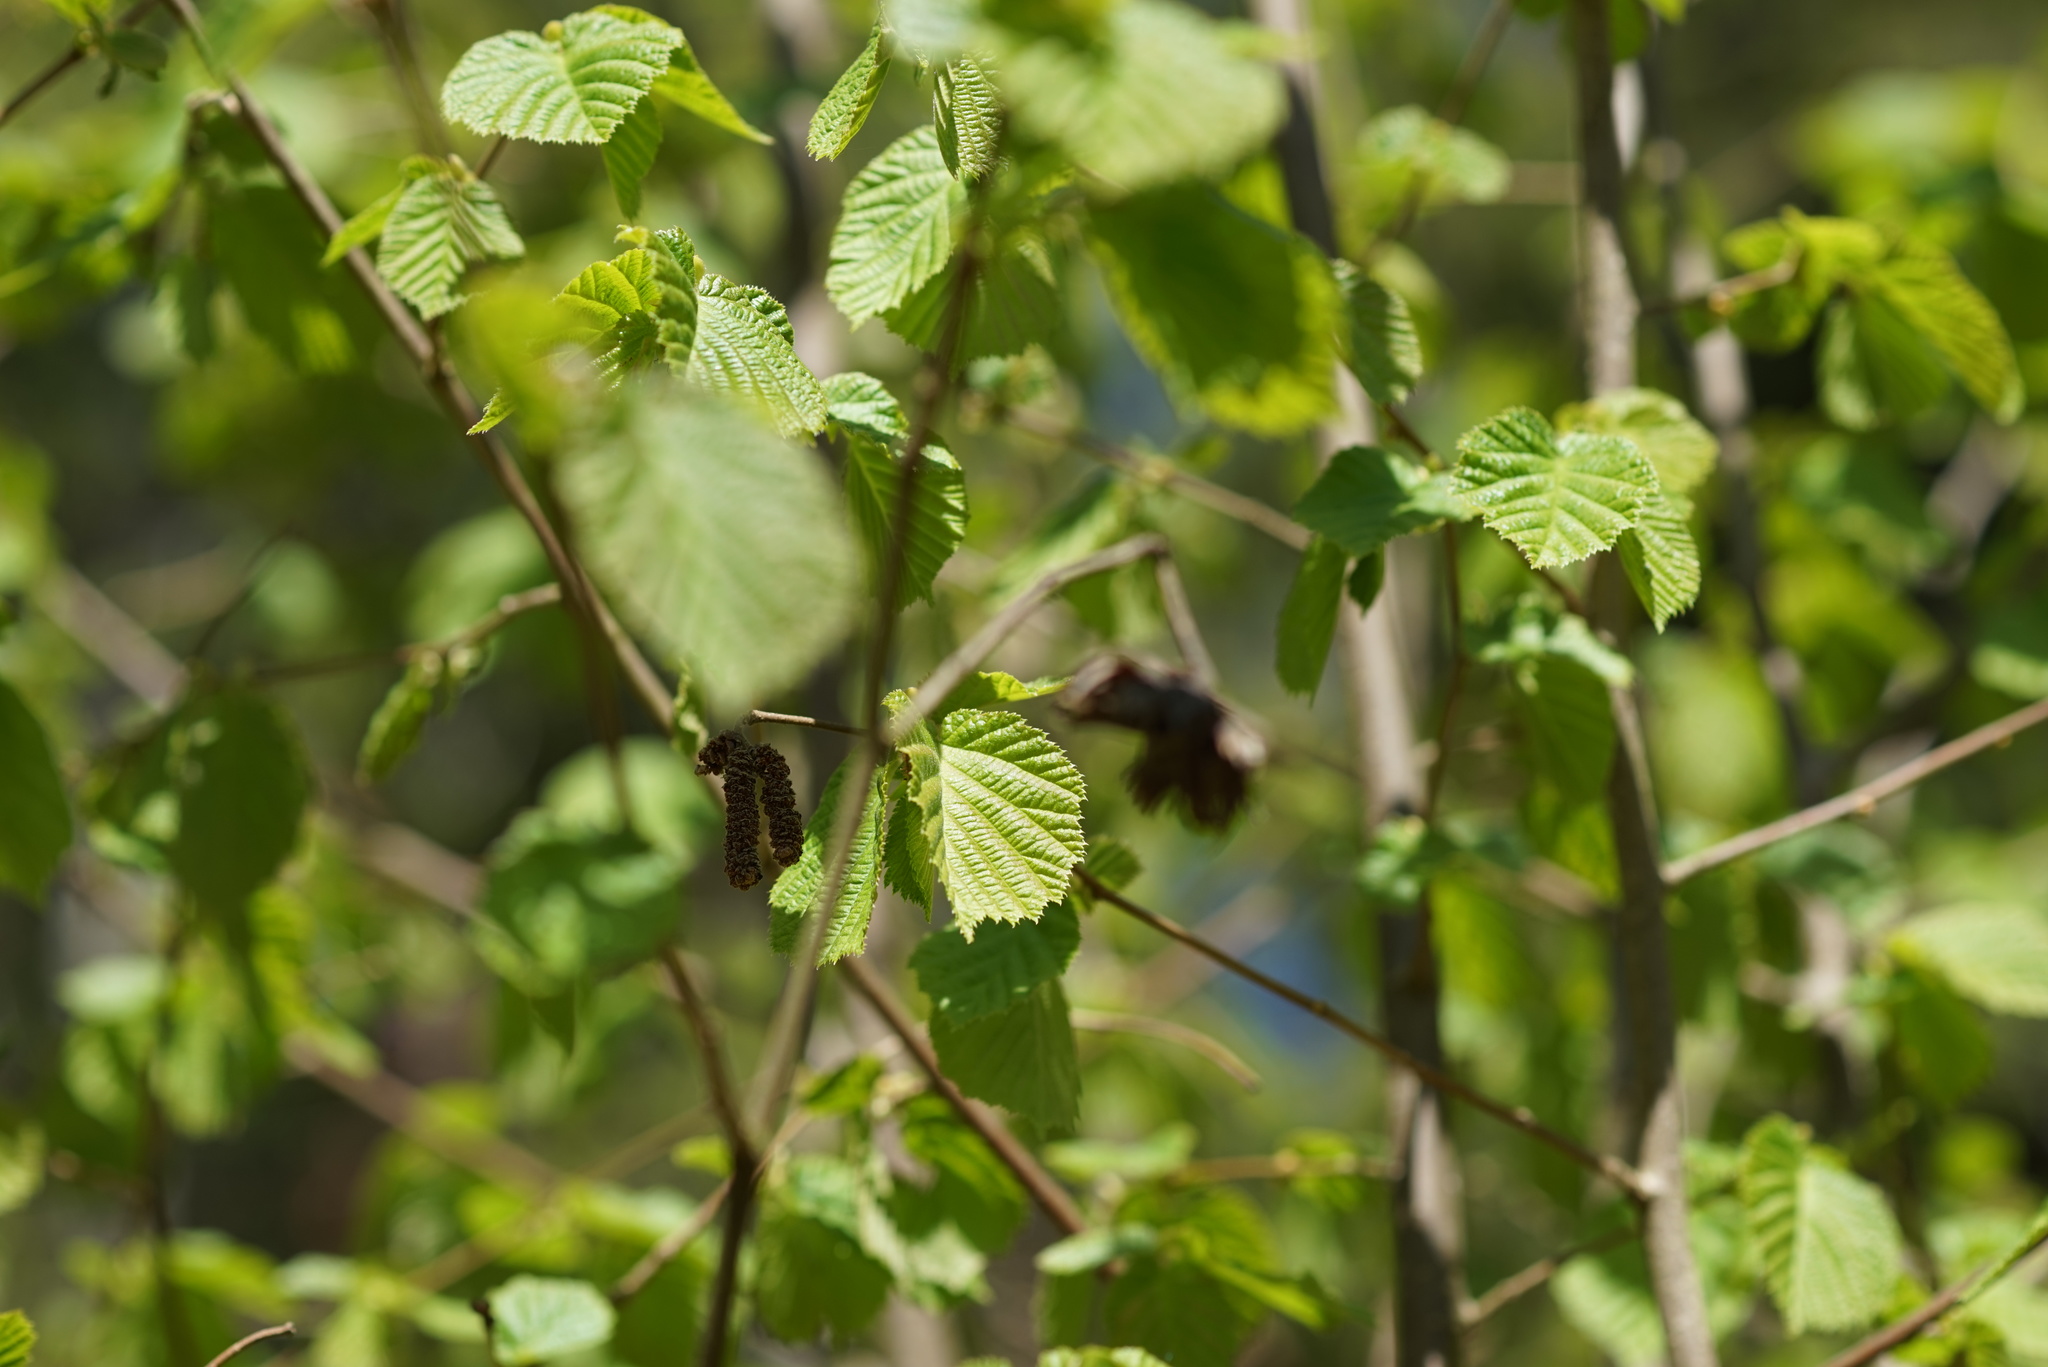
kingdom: Plantae
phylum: Tracheophyta
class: Magnoliopsida
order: Fagales
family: Betulaceae
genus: Corylus
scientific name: Corylus avellana
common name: European hazel
